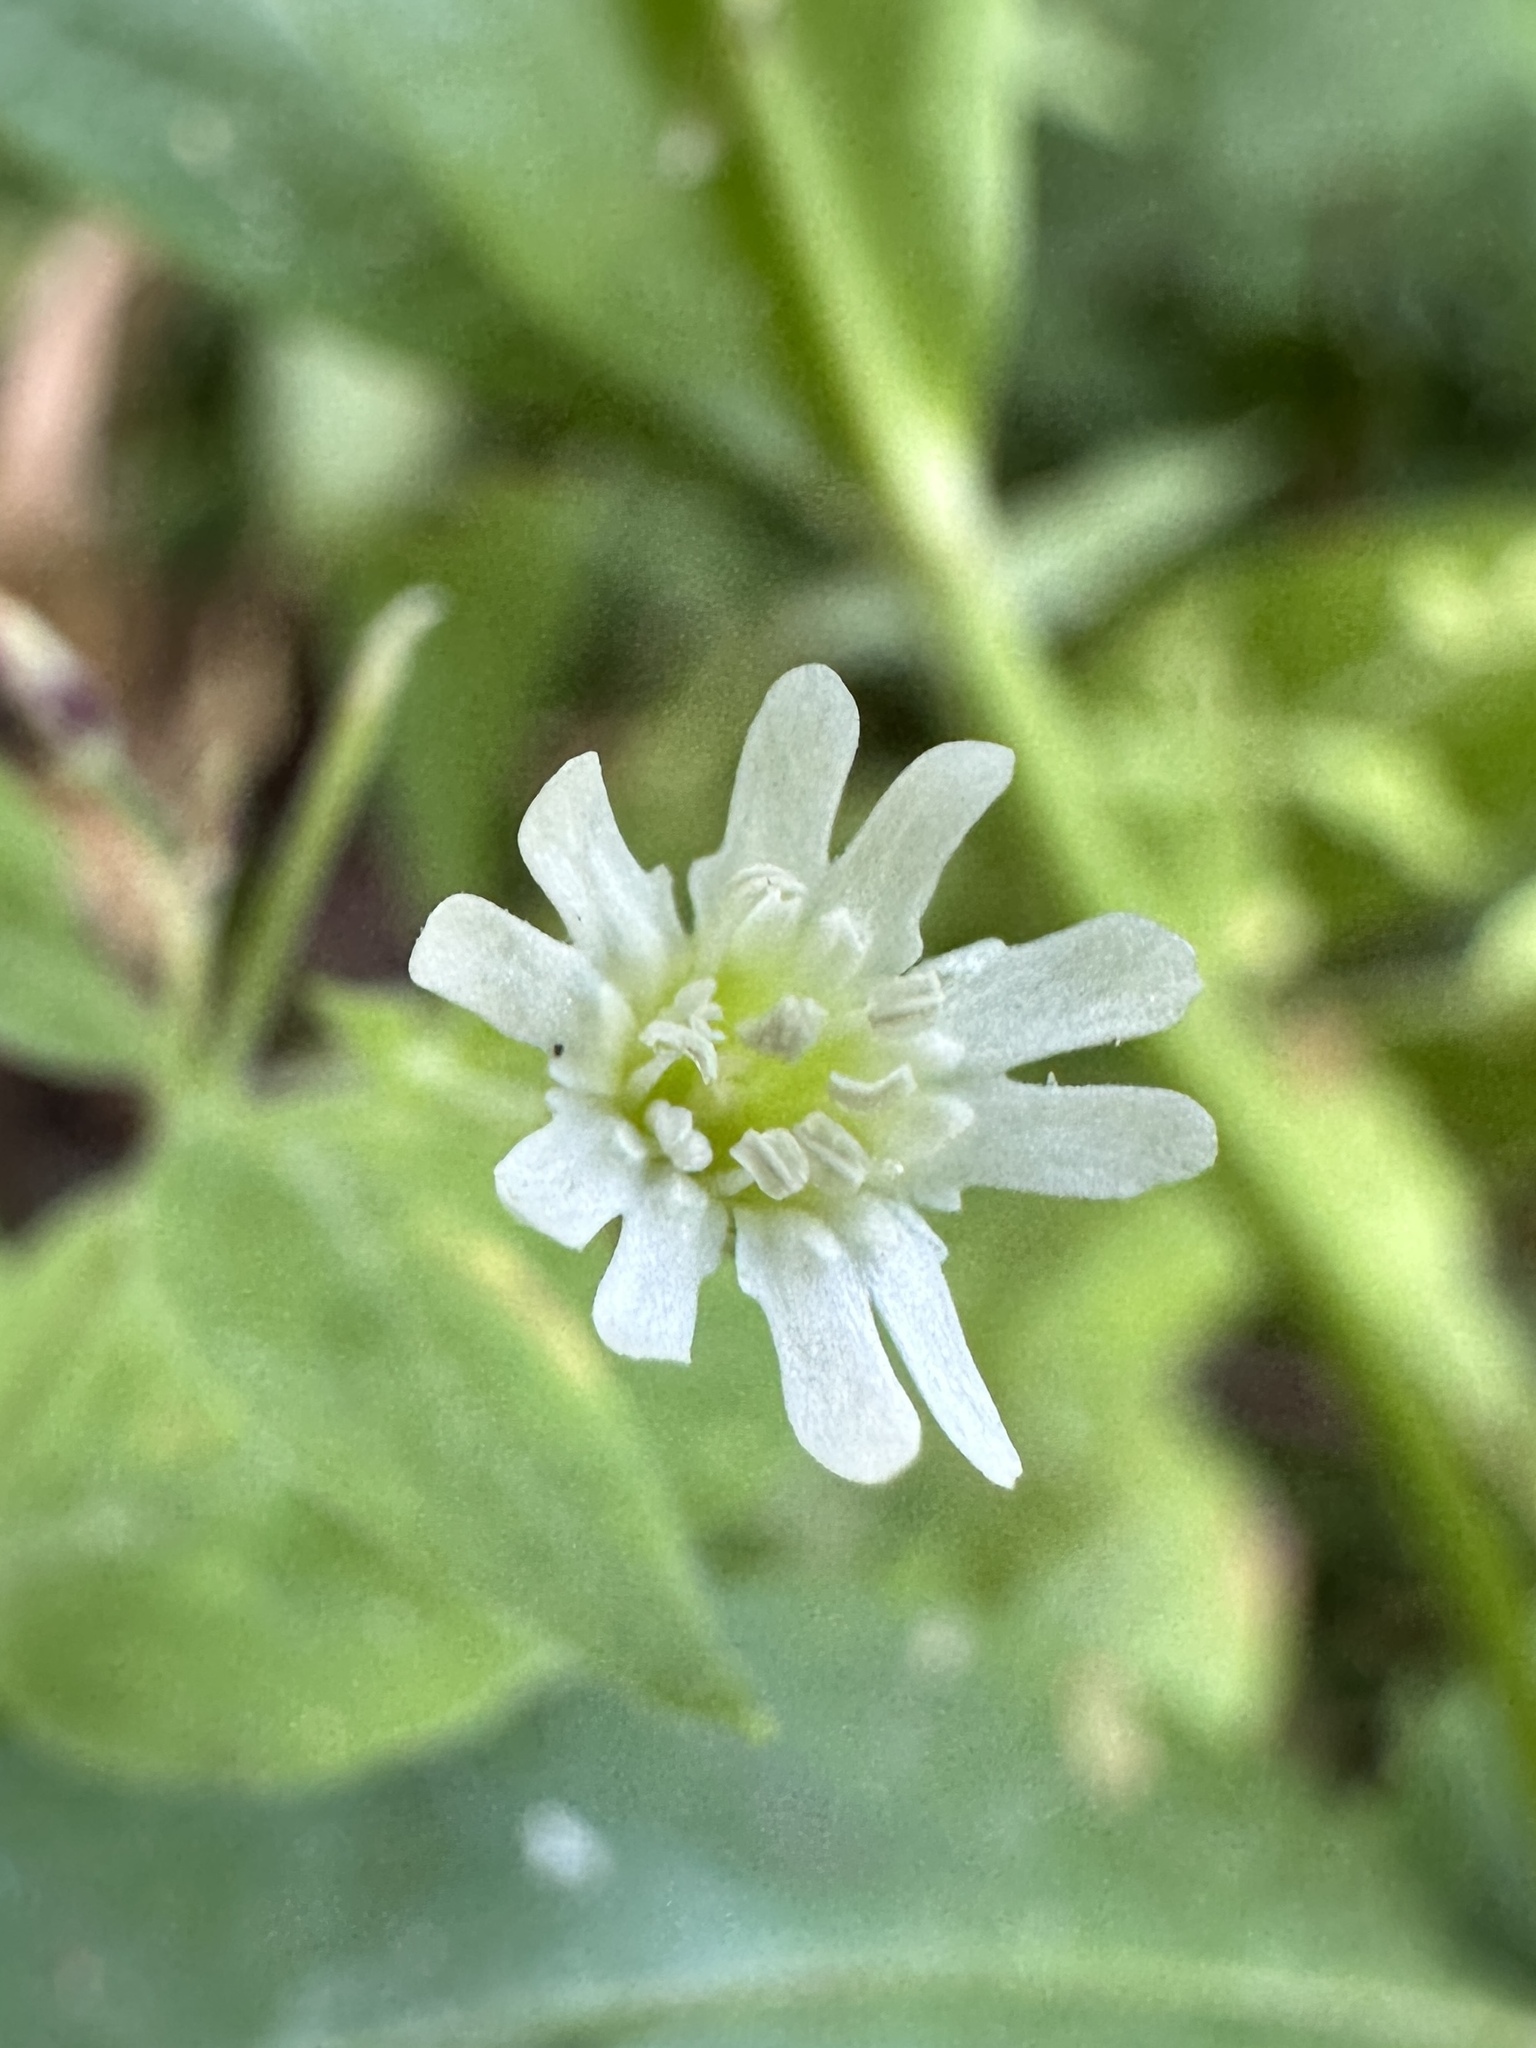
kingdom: Plantae
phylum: Tracheophyta
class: Magnoliopsida
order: Caryophyllales
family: Caryophyllaceae
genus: Silene
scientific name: Silene menziesii
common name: Menzies's catchfly
